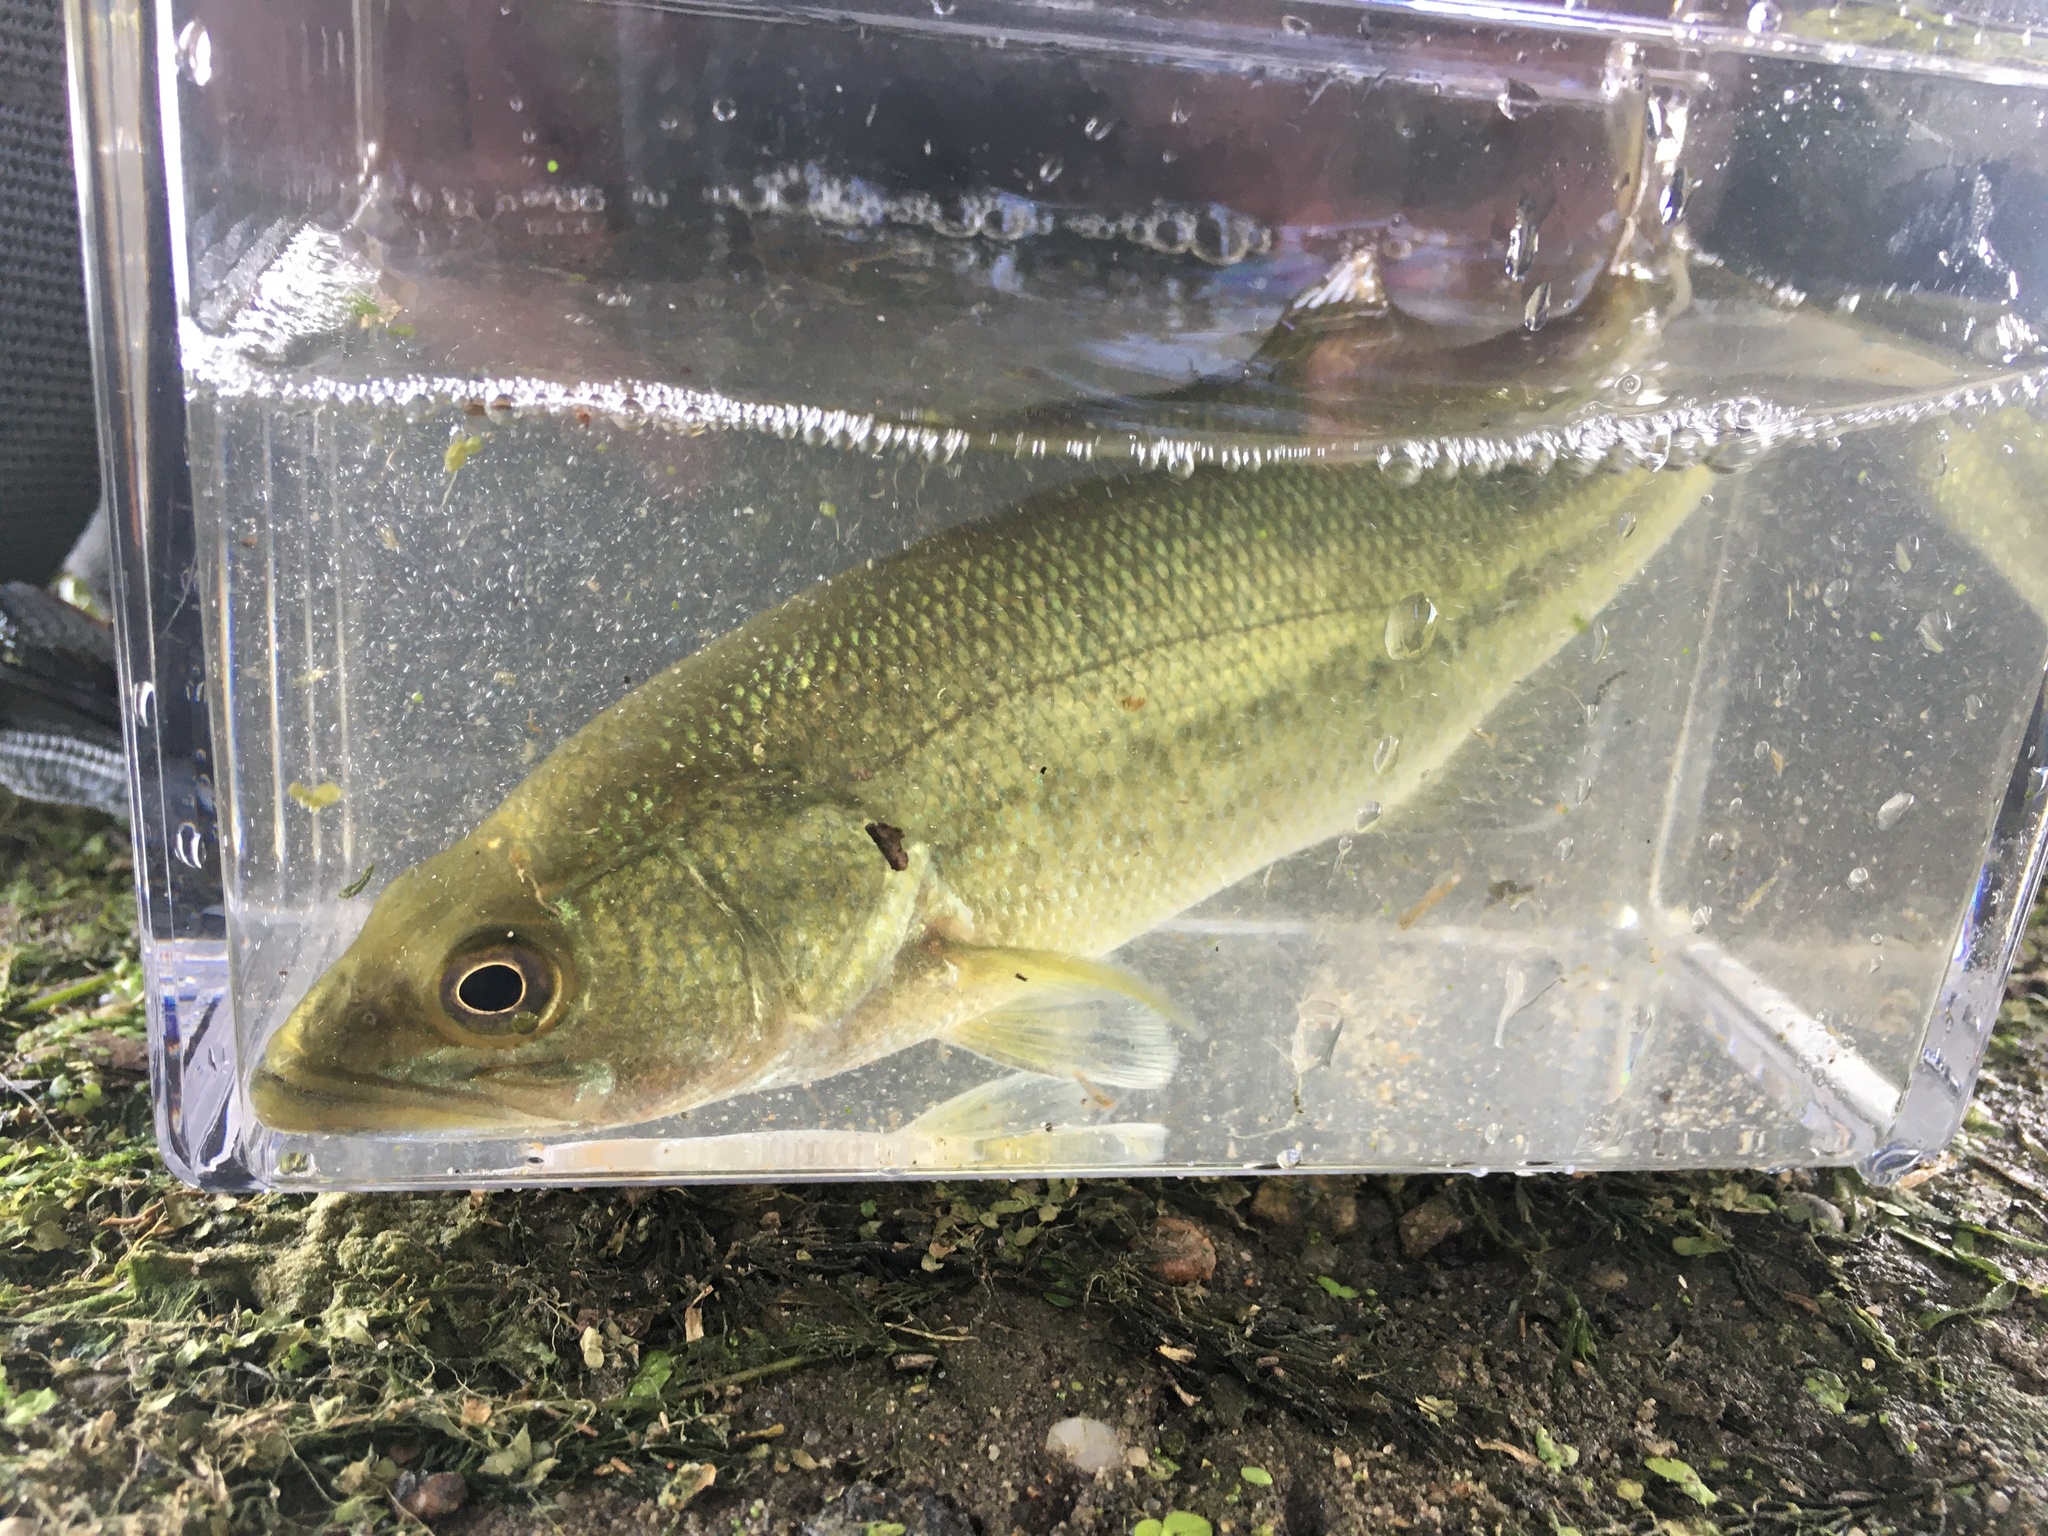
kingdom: Animalia
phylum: Chordata
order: Perciformes
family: Centrarchidae
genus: Micropterus
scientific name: Micropterus
